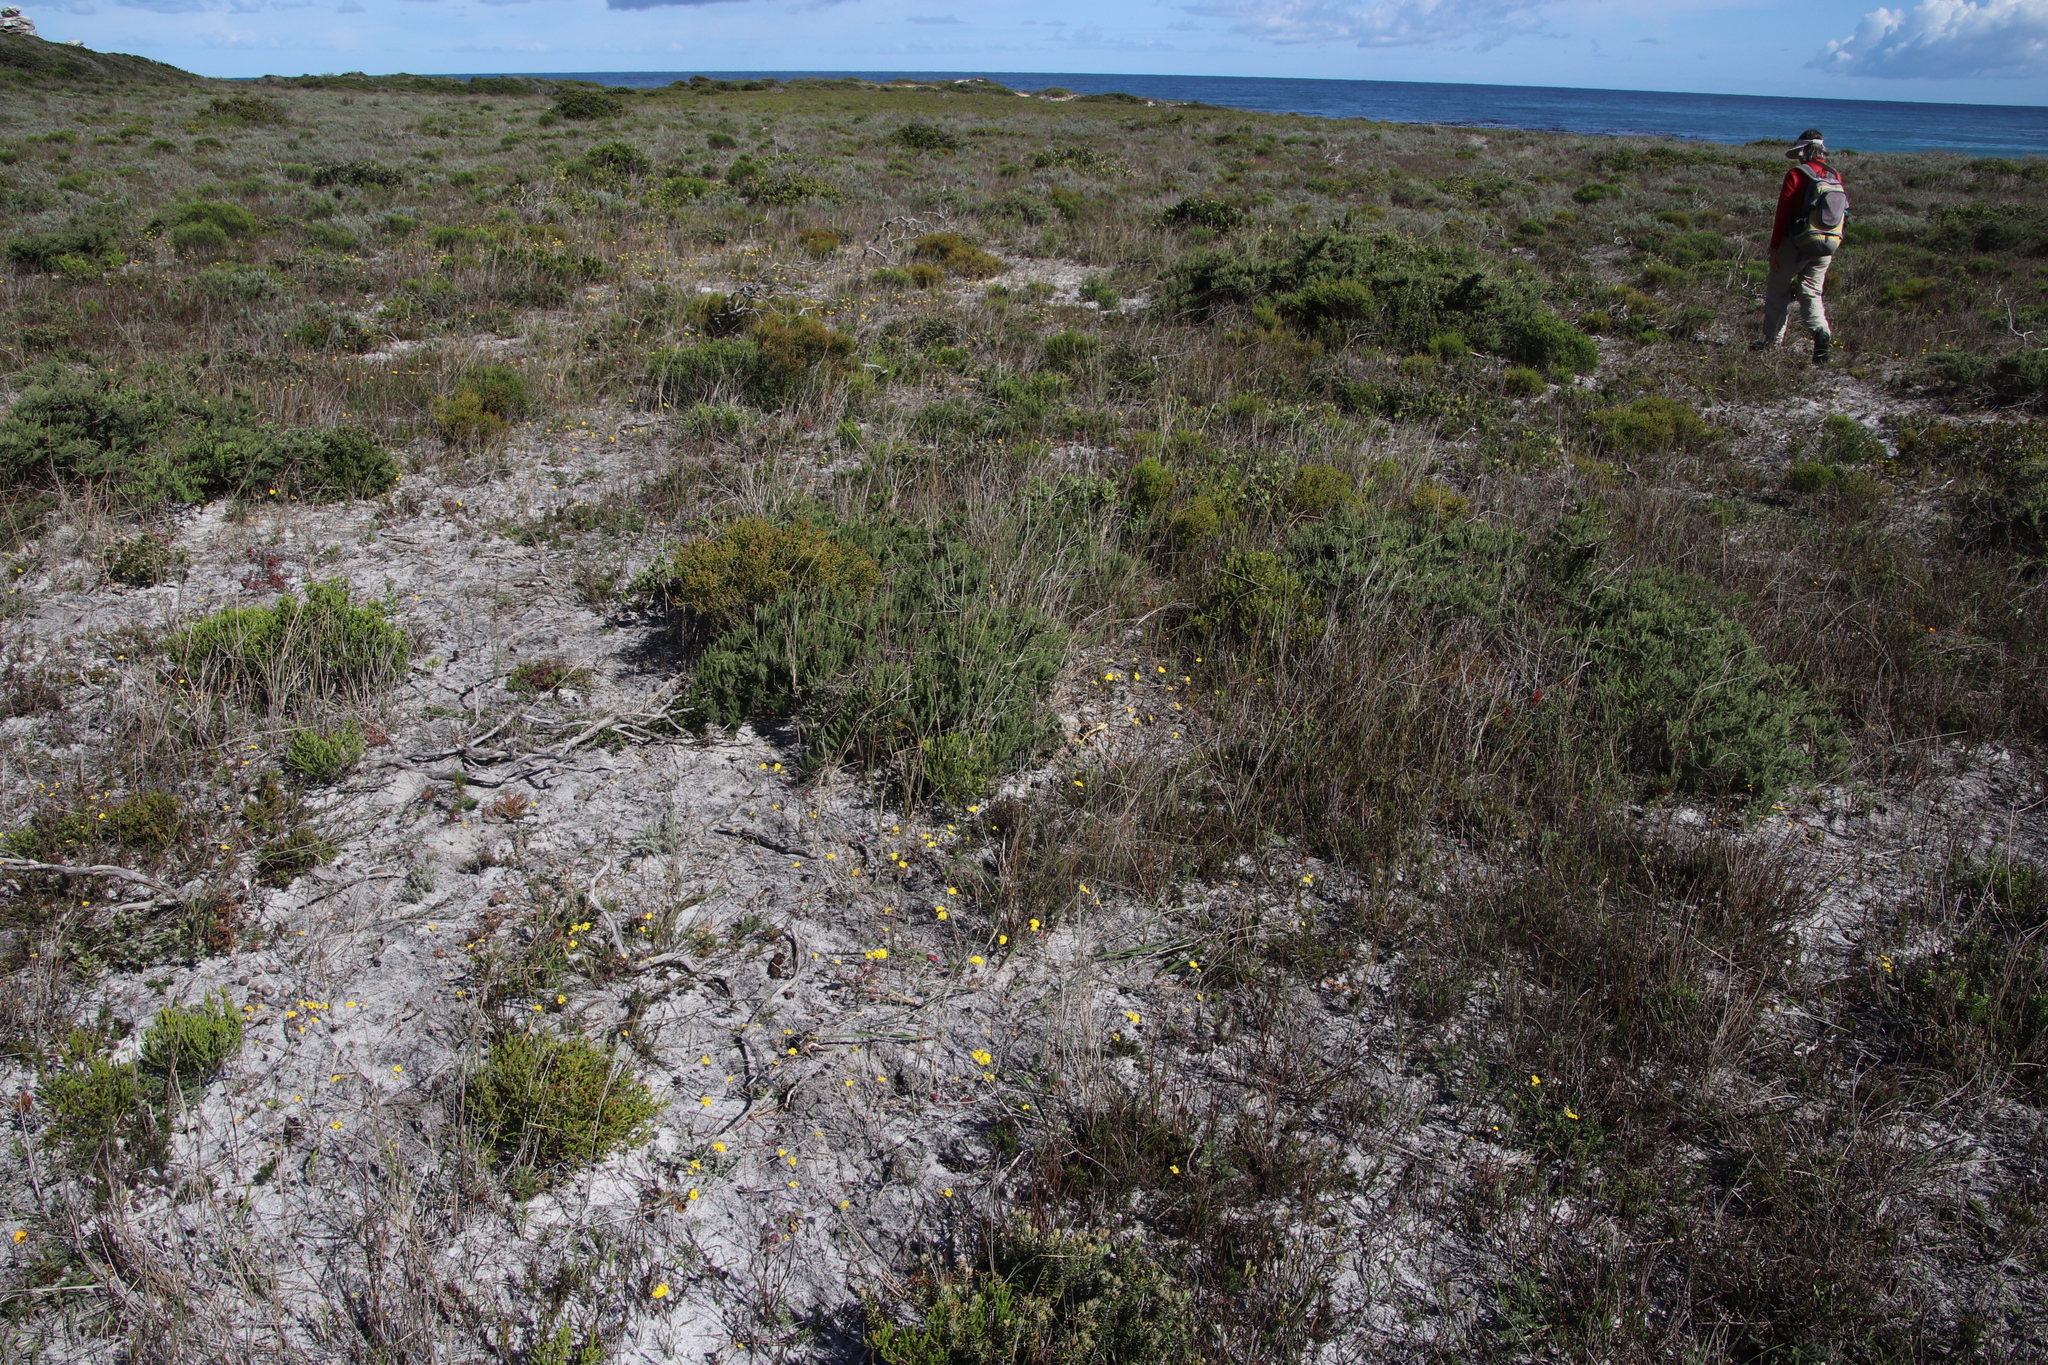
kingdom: Plantae
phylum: Tracheophyta
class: Magnoliopsida
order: Asterales
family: Asteraceae
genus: Gymnodiscus
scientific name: Gymnodiscus capillaris
